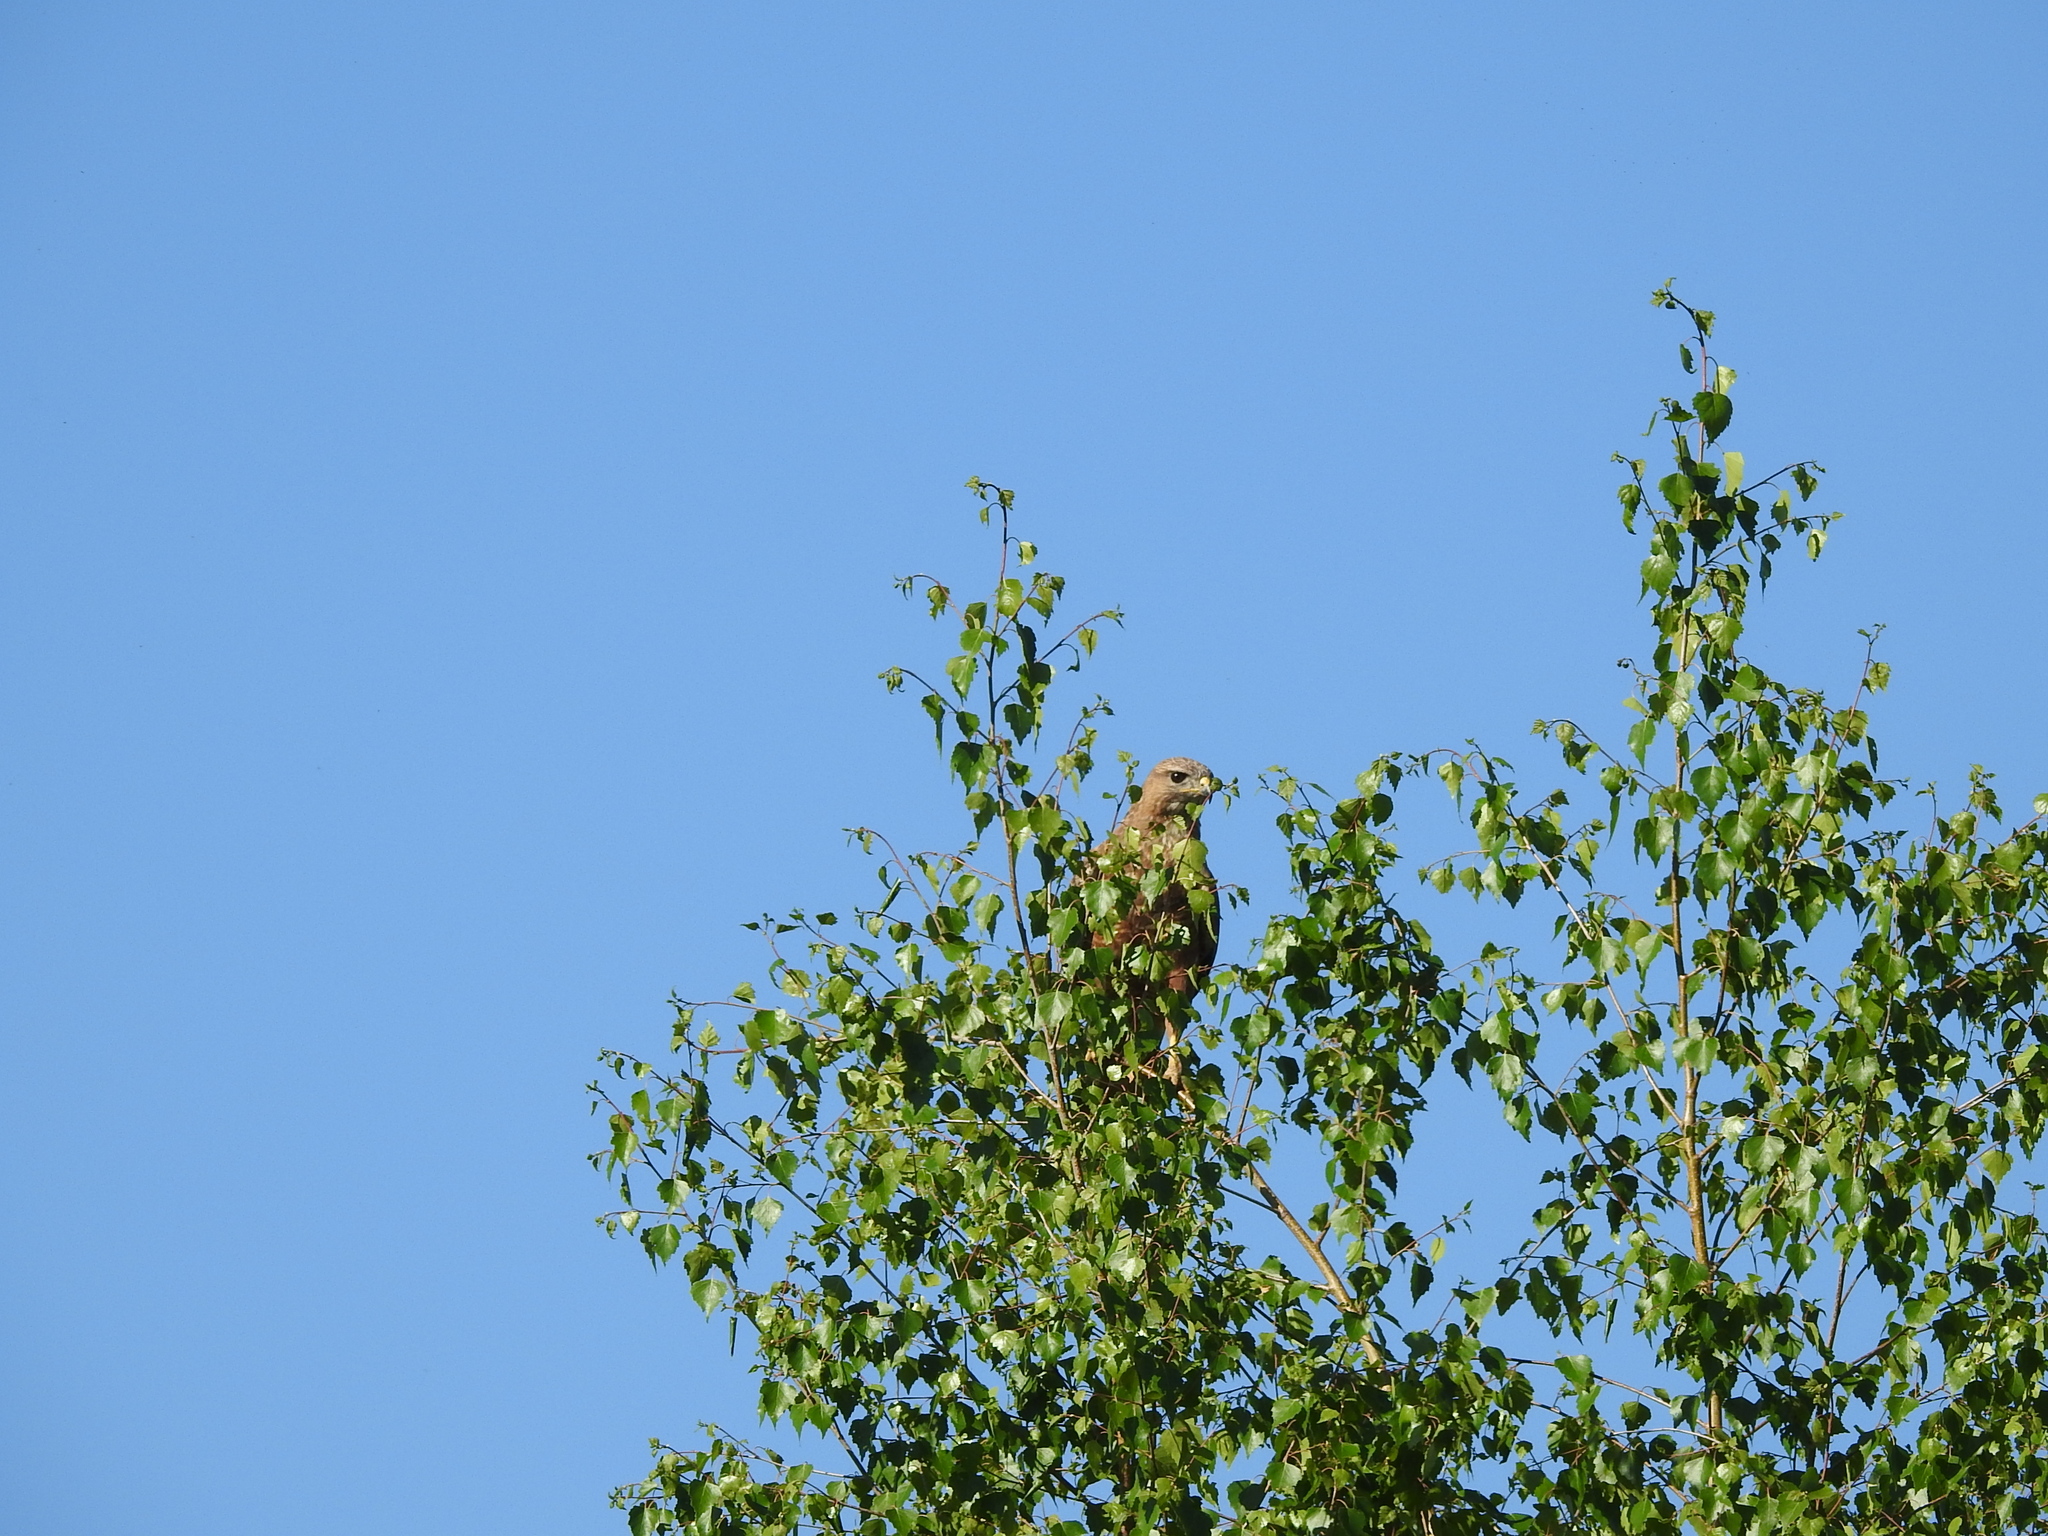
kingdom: Animalia
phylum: Chordata
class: Aves
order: Accipitriformes
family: Accipitridae
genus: Buteo
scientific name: Buteo buteo
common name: Common buzzard
